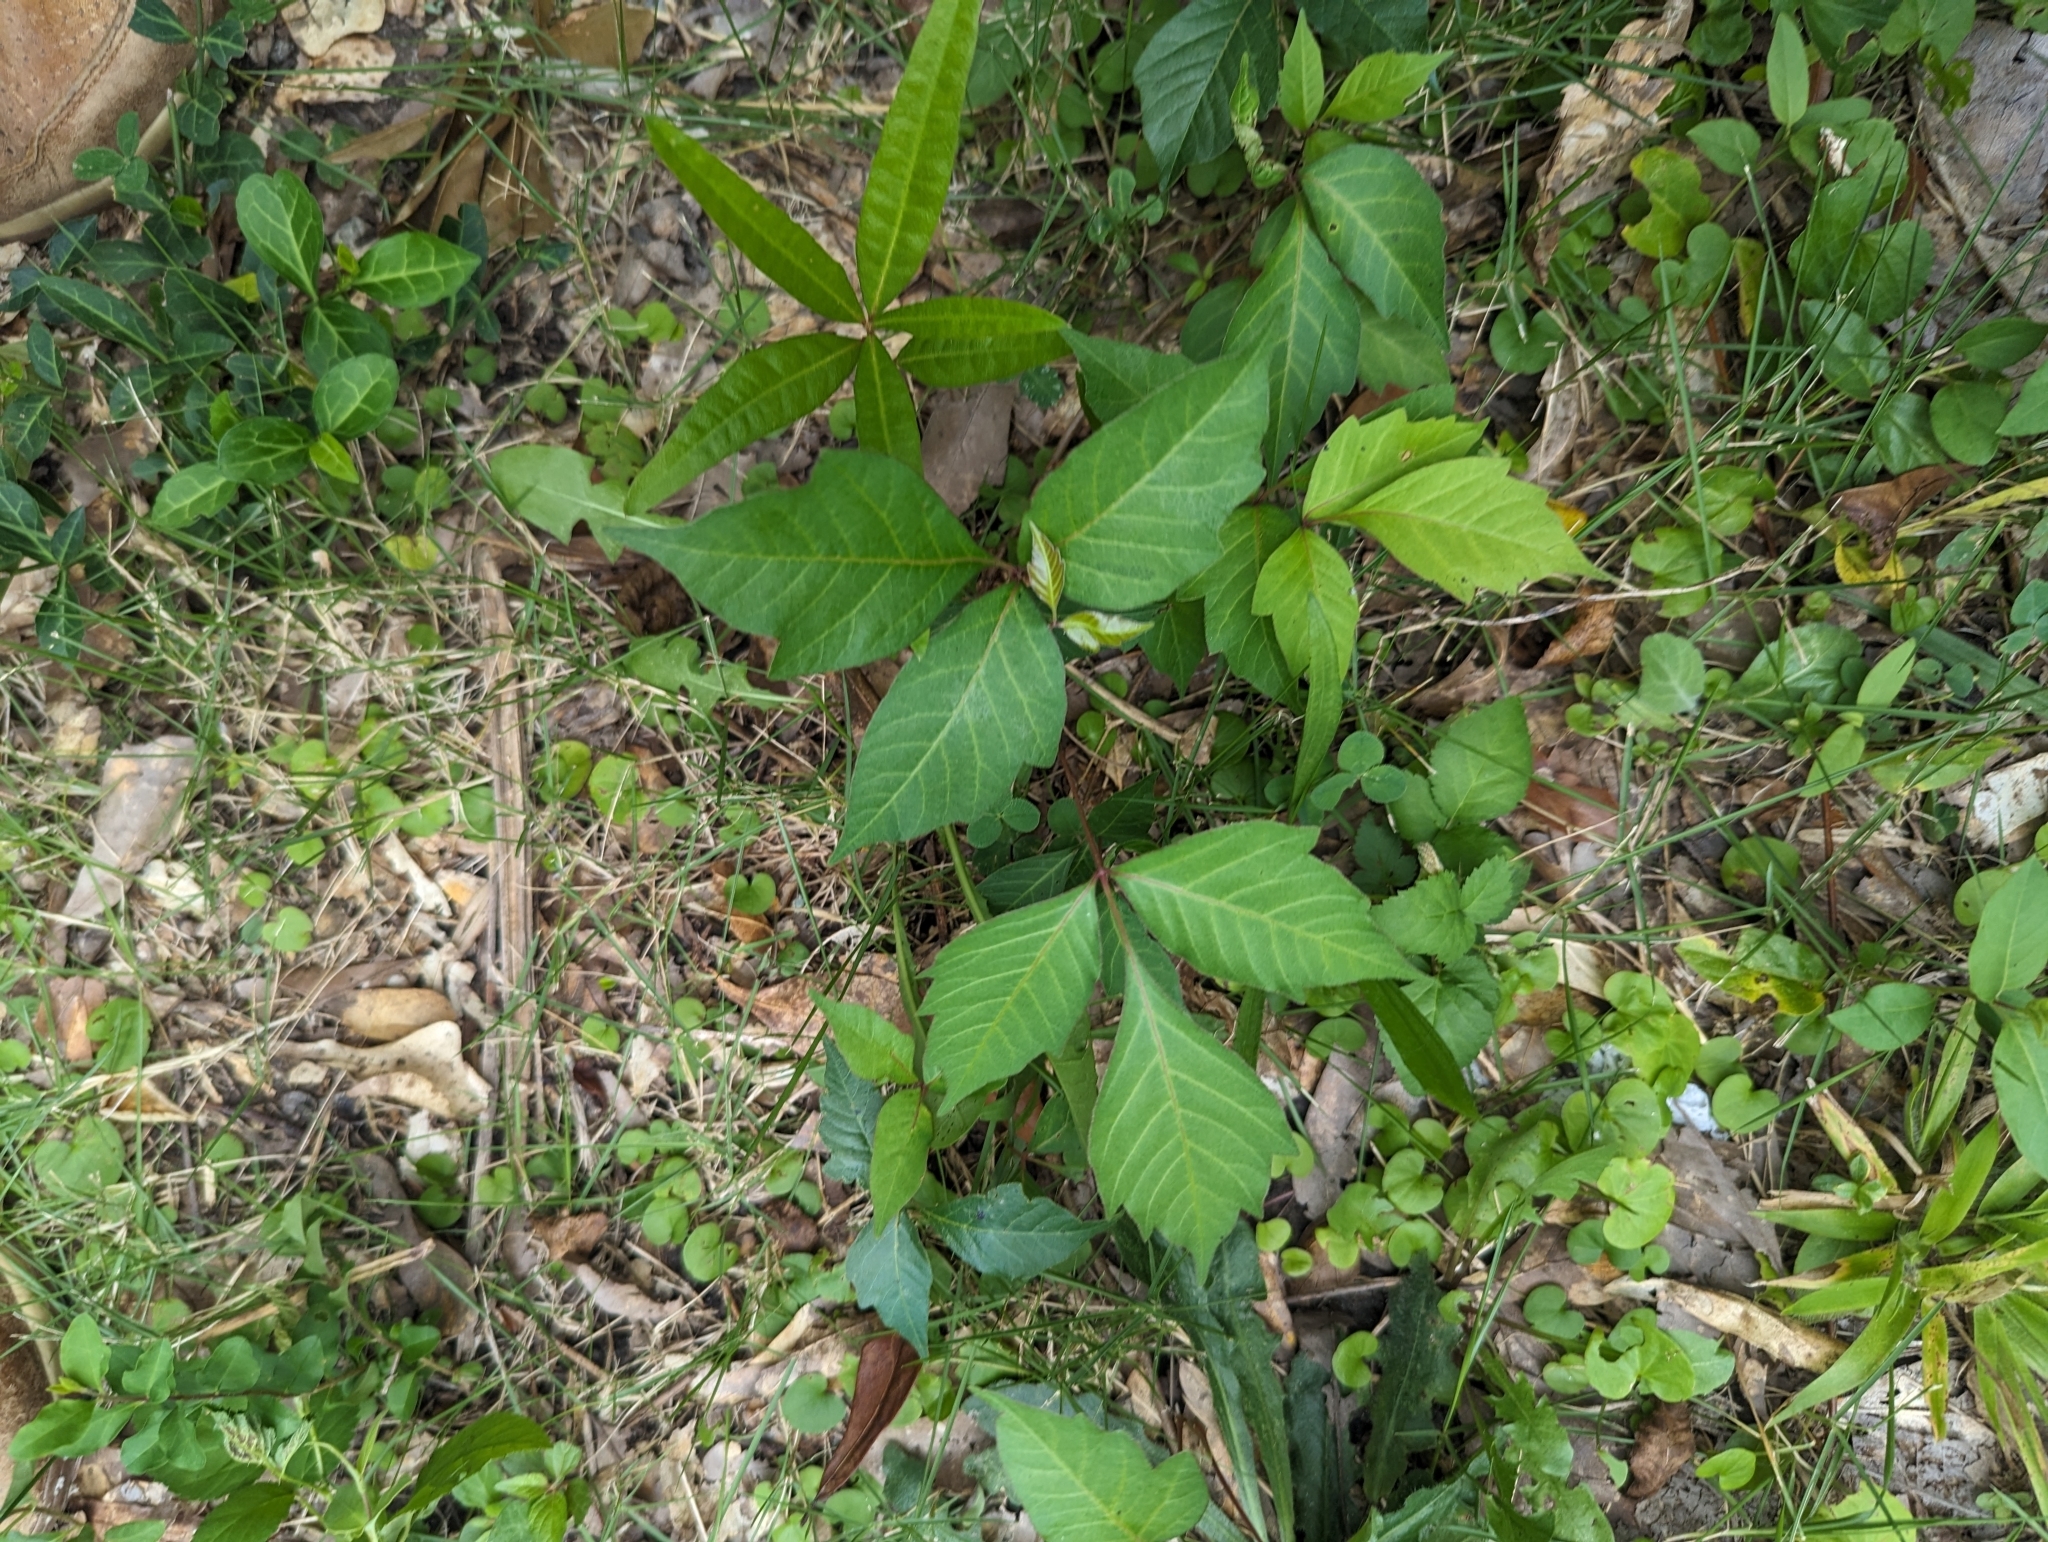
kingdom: Plantae
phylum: Tracheophyta
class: Magnoliopsida
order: Sapindales
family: Anacardiaceae
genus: Toxicodendron
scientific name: Toxicodendron radicans
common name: Poison ivy
